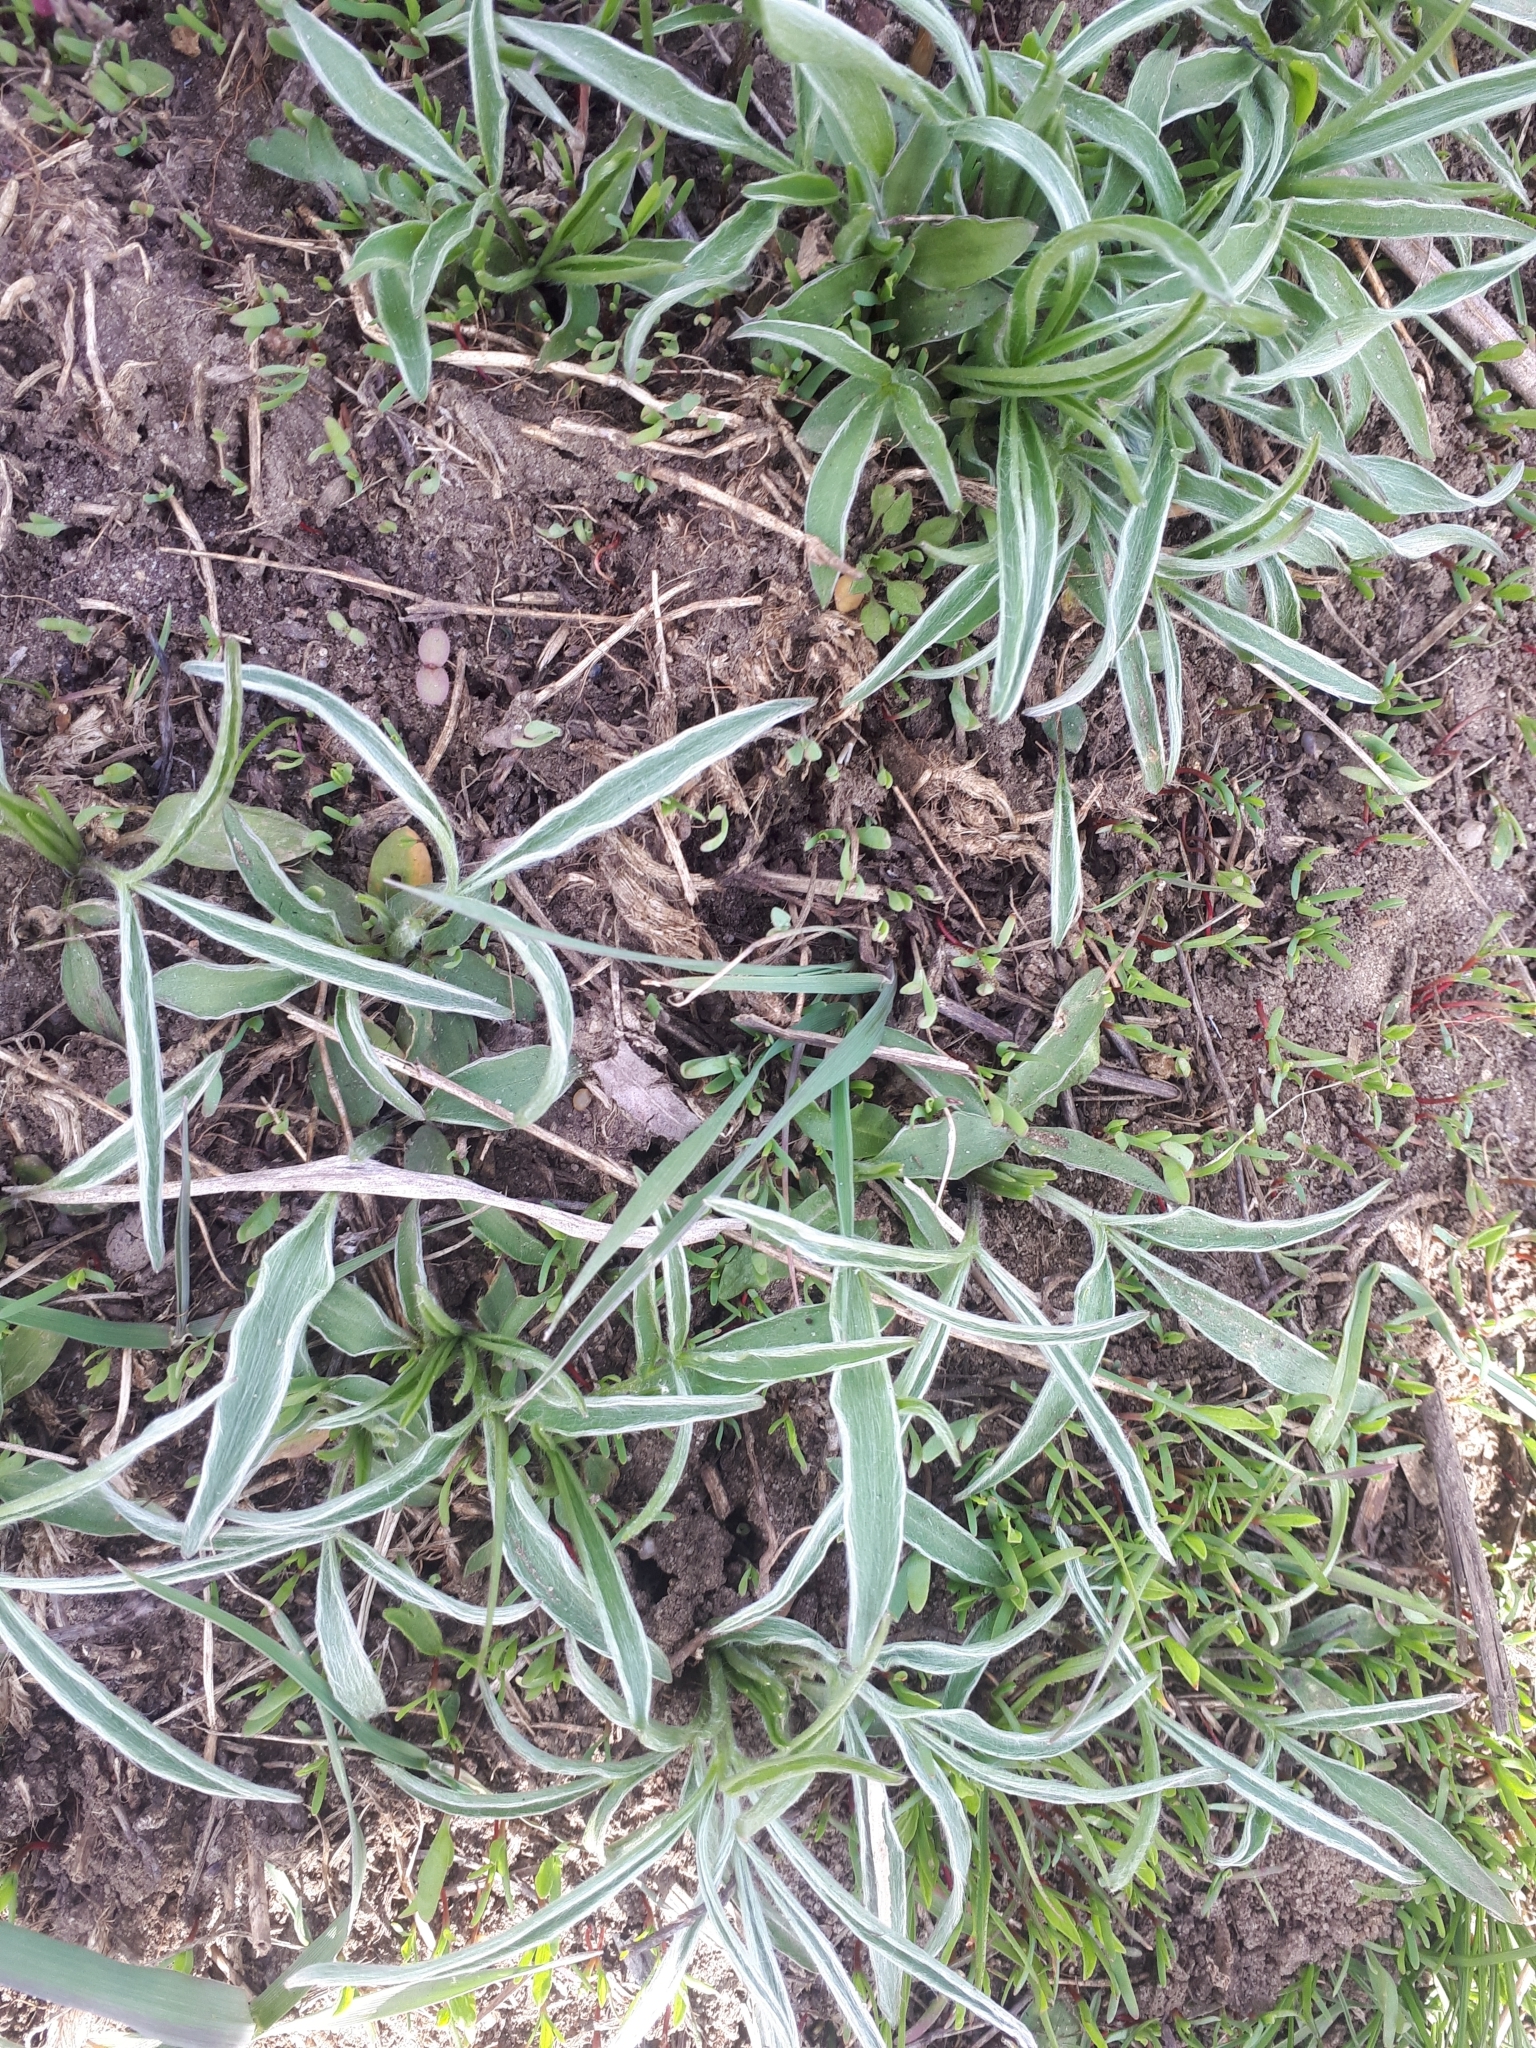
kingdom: Plantae
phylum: Tracheophyta
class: Magnoliopsida
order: Ranunculales
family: Ranunculaceae
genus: Ranunculus
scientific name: Ranunculus illyricus
